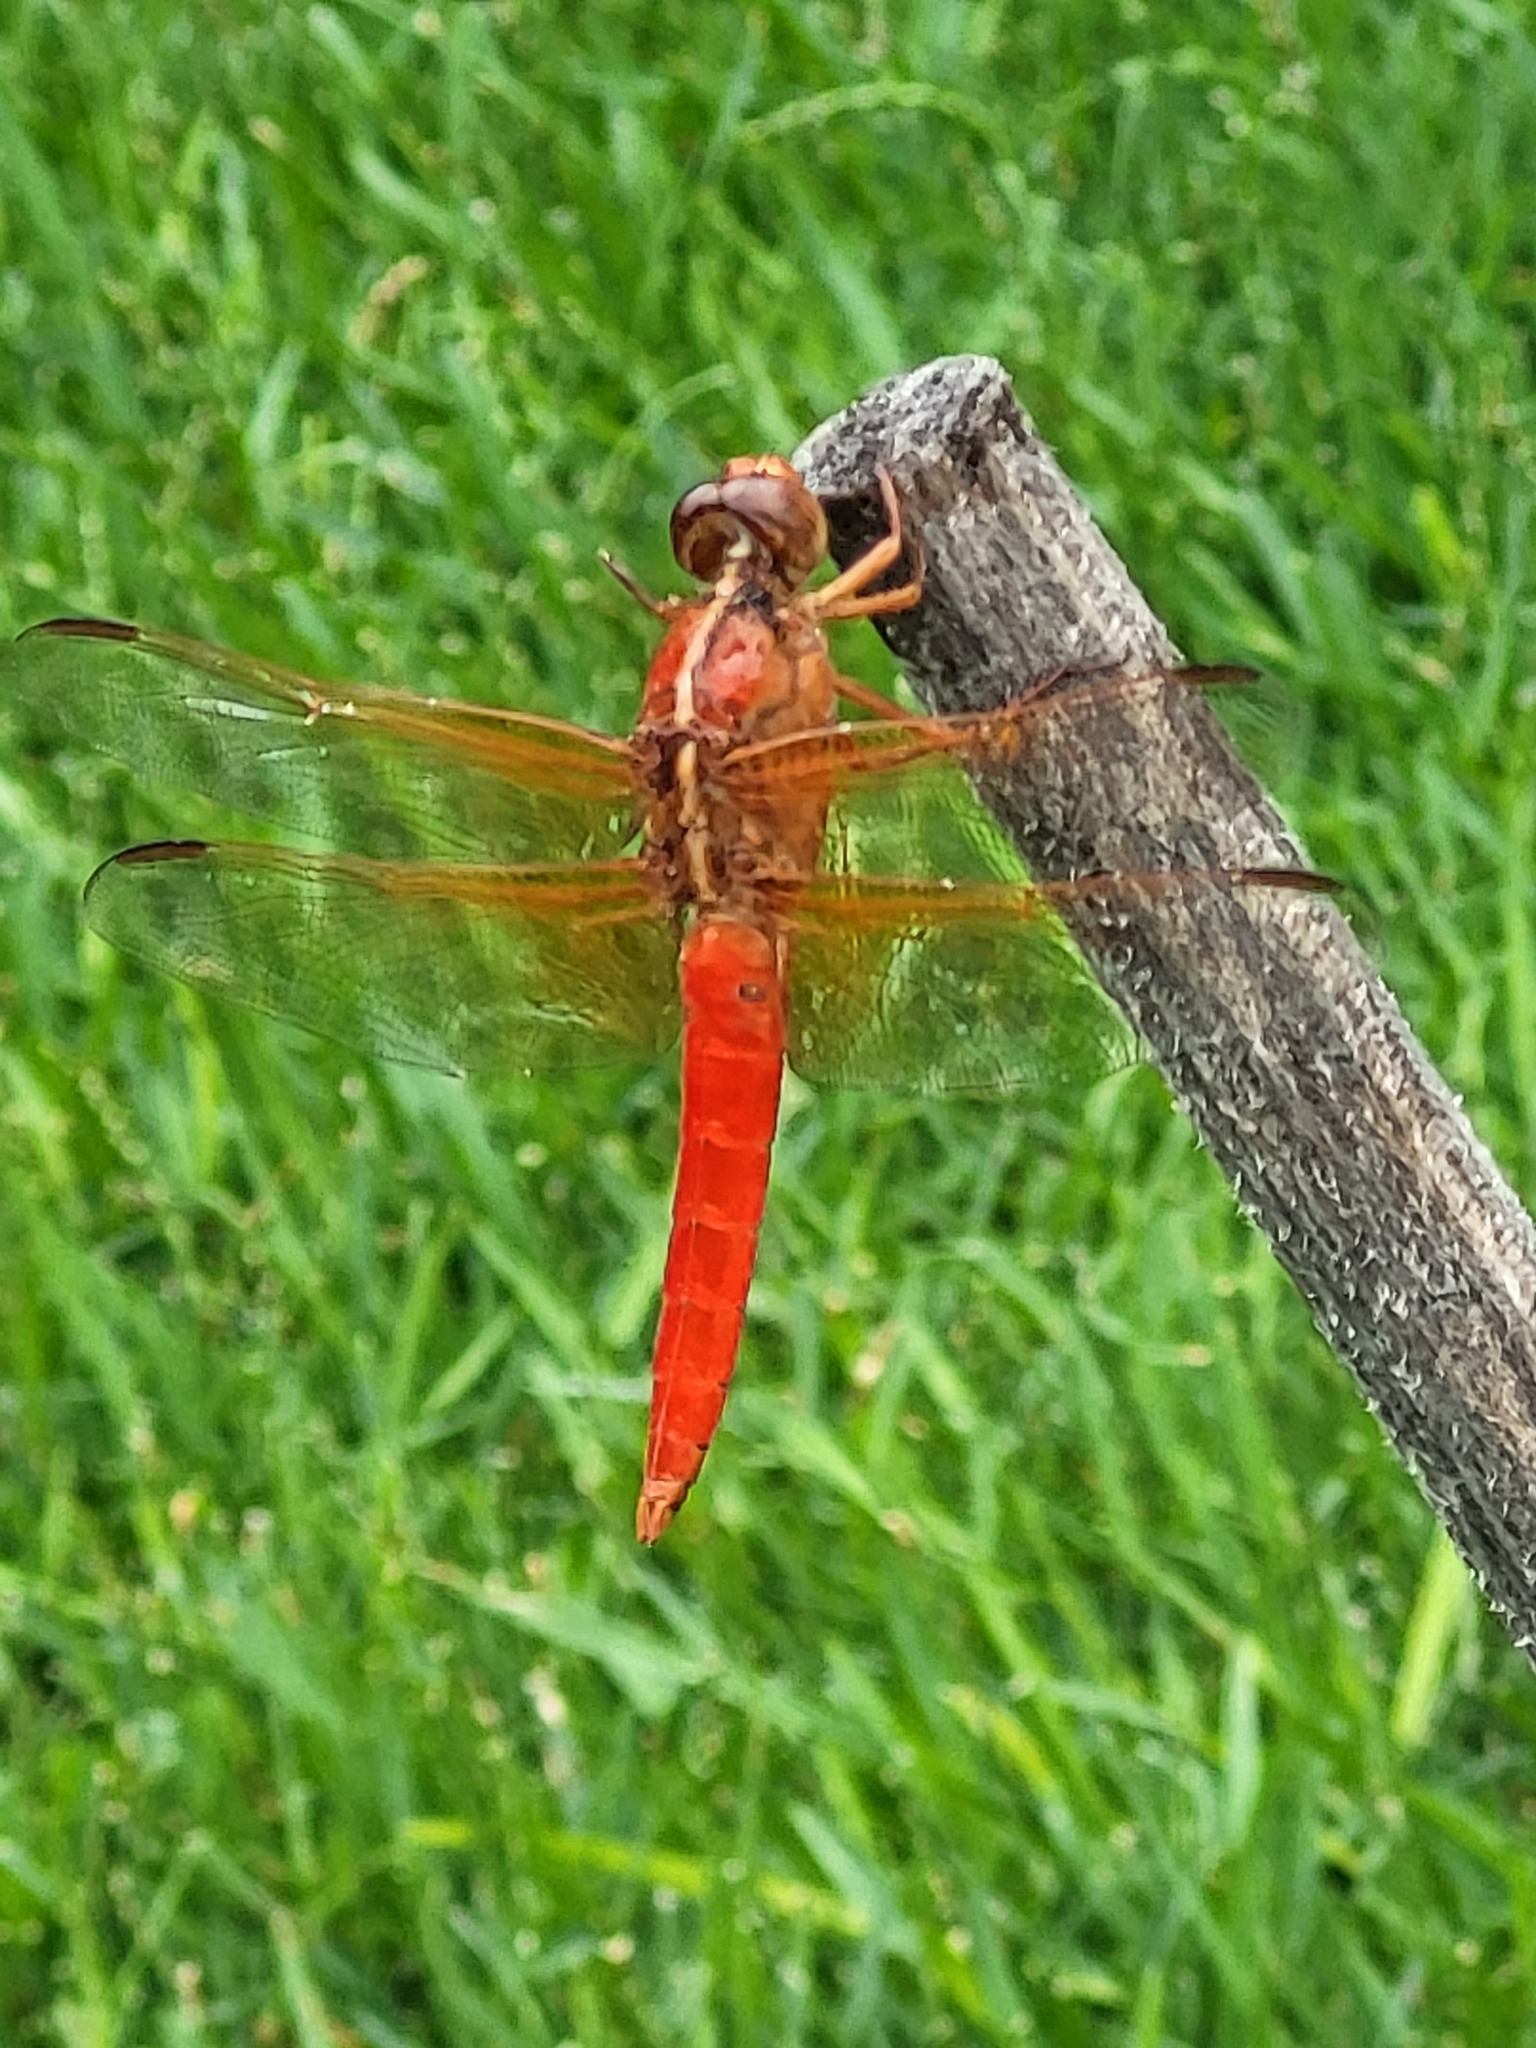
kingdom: Animalia
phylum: Arthropoda
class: Insecta
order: Odonata
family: Libellulidae
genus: Libellula
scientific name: Libellula croceipennis
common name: Neon skimmer
